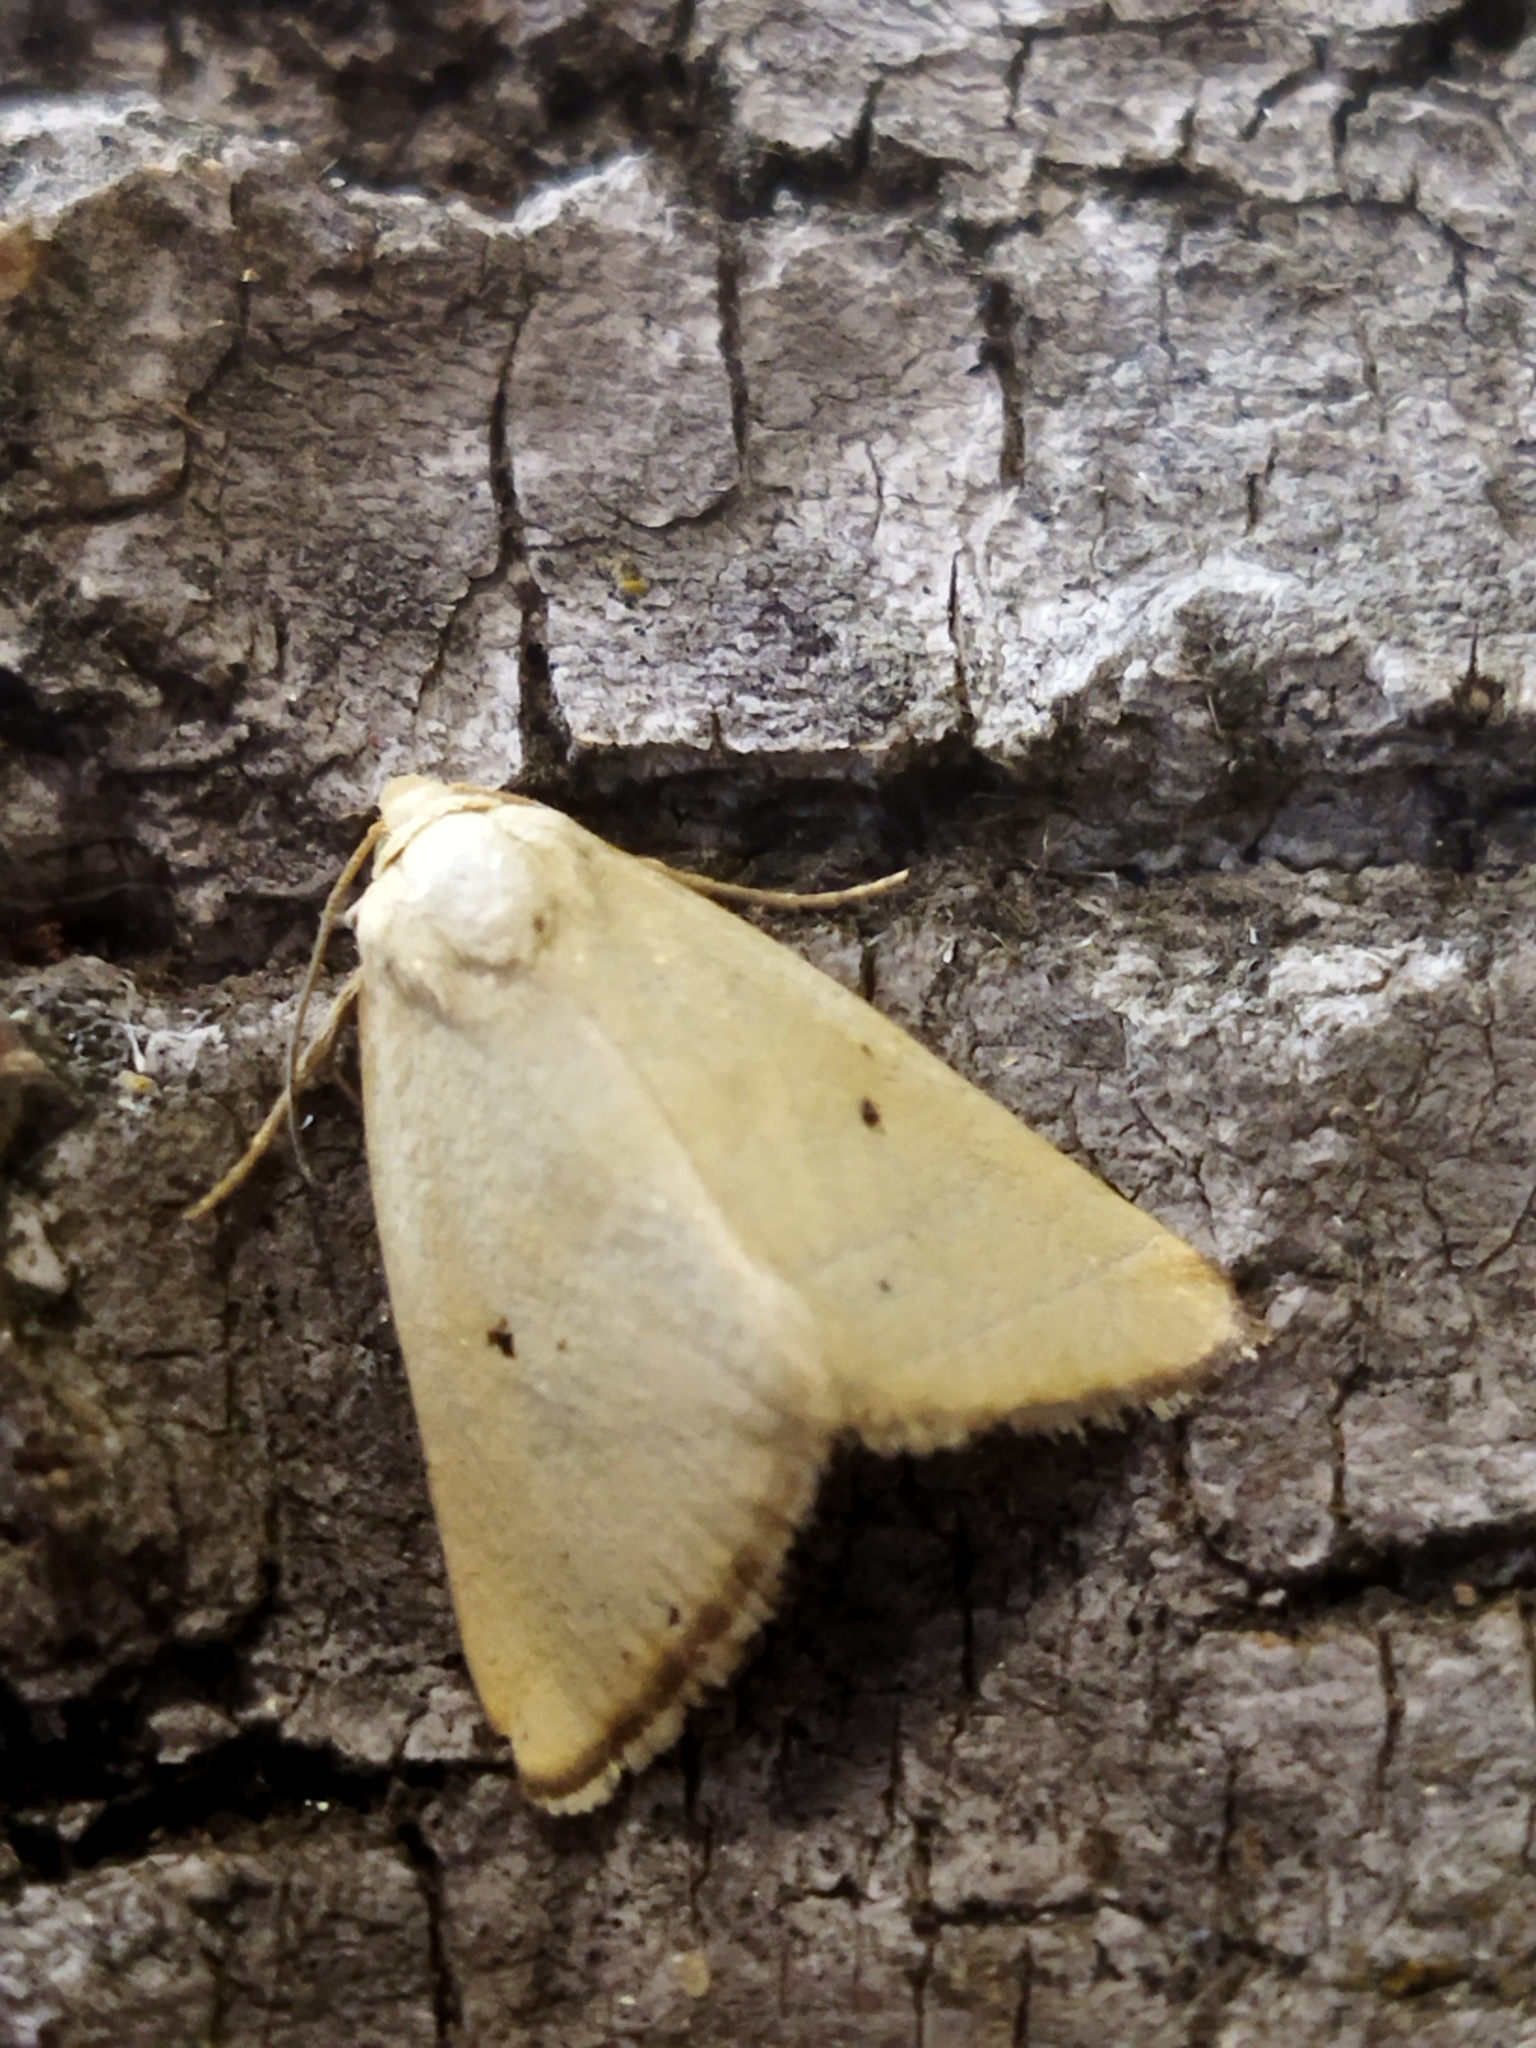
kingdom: Animalia
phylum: Arthropoda
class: Insecta
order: Lepidoptera
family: Noctuidae
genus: Aegle
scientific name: Aegle kaekeritziana
